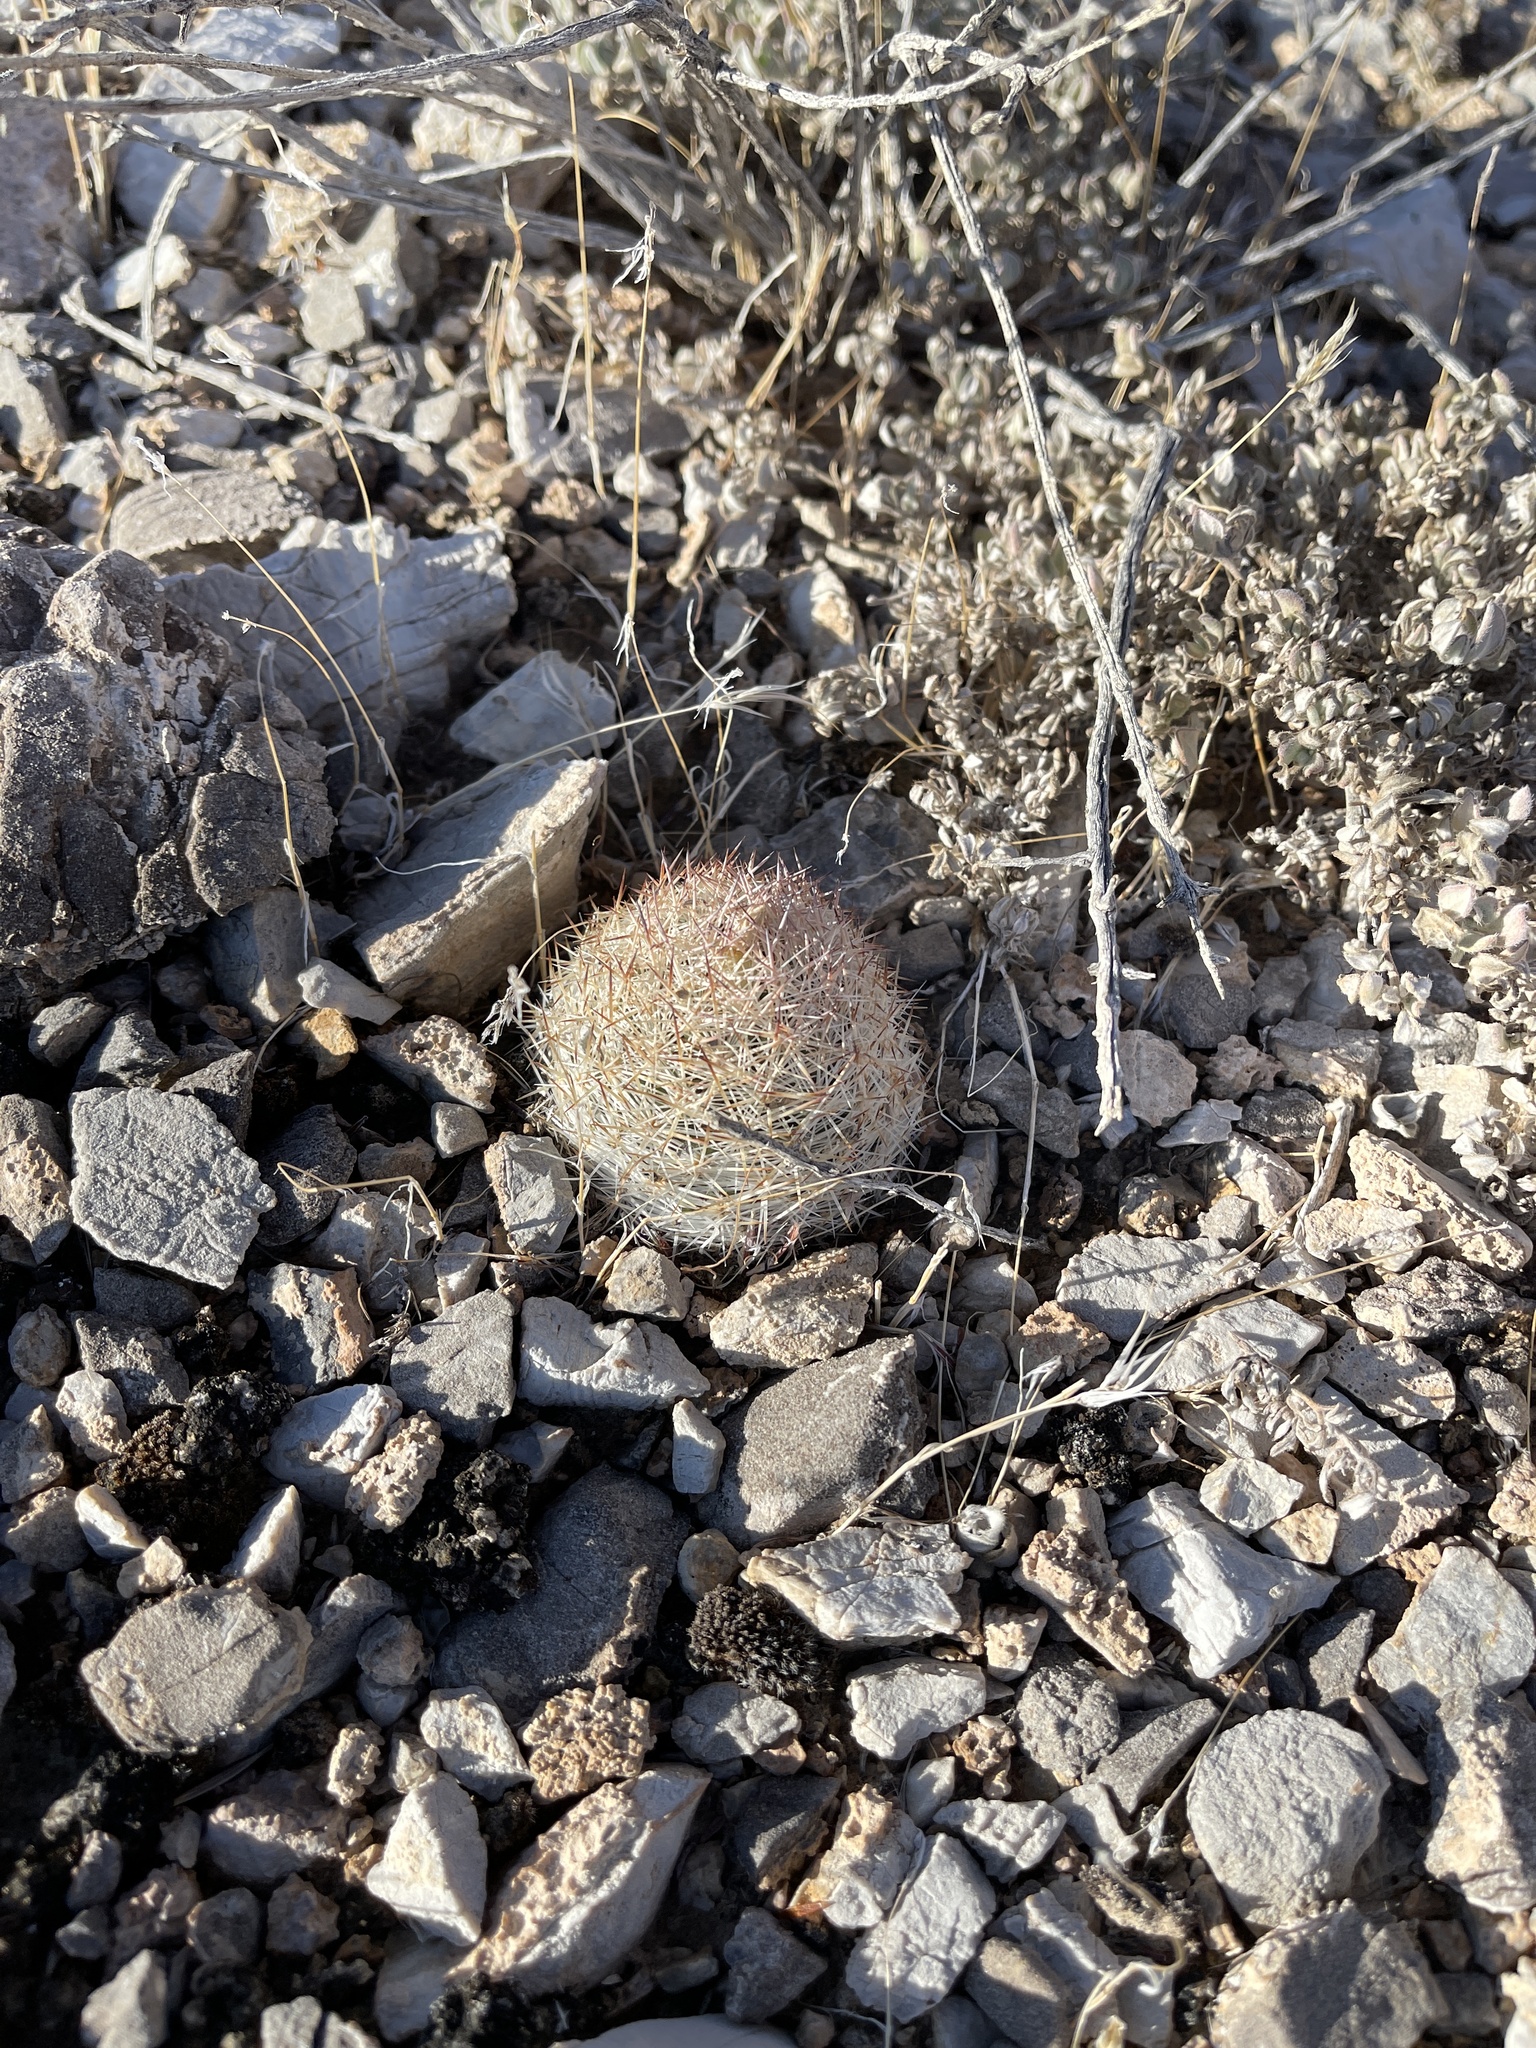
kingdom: Plantae
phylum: Tracheophyta
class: Magnoliopsida
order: Caryophyllales
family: Cactaceae
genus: Pelecyphora
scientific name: Pelecyphora dasyacantha
